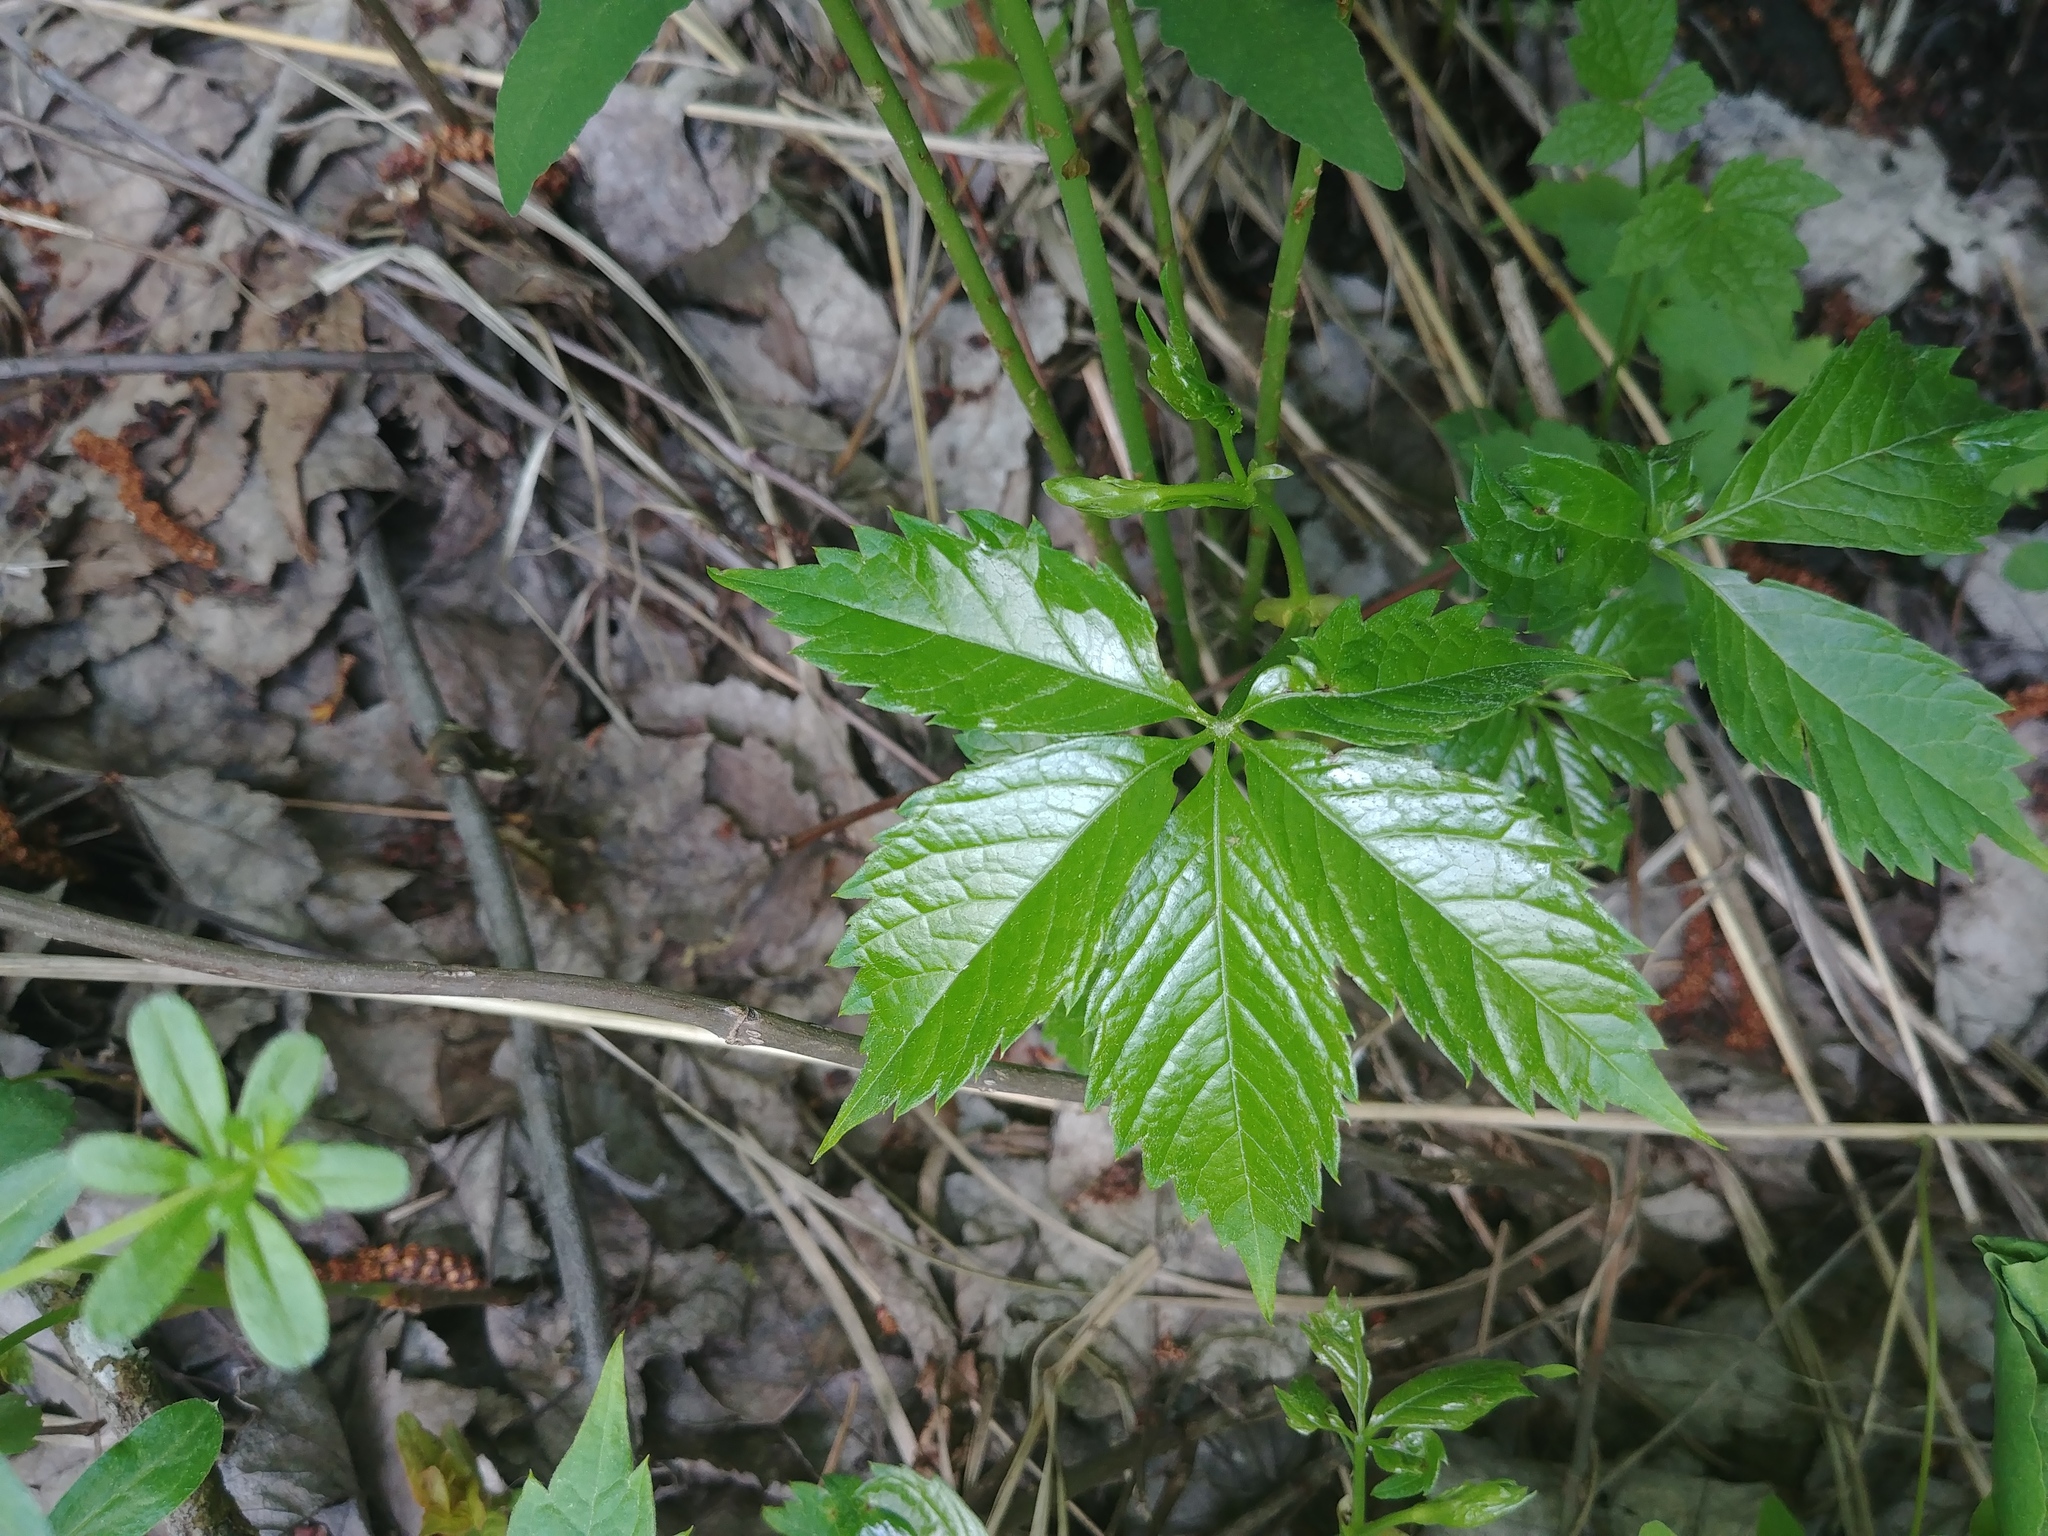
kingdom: Plantae
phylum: Tracheophyta
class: Magnoliopsida
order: Vitales
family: Vitaceae
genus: Parthenocissus
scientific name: Parthenocissus quinquefolia
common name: Virginia-creeper
